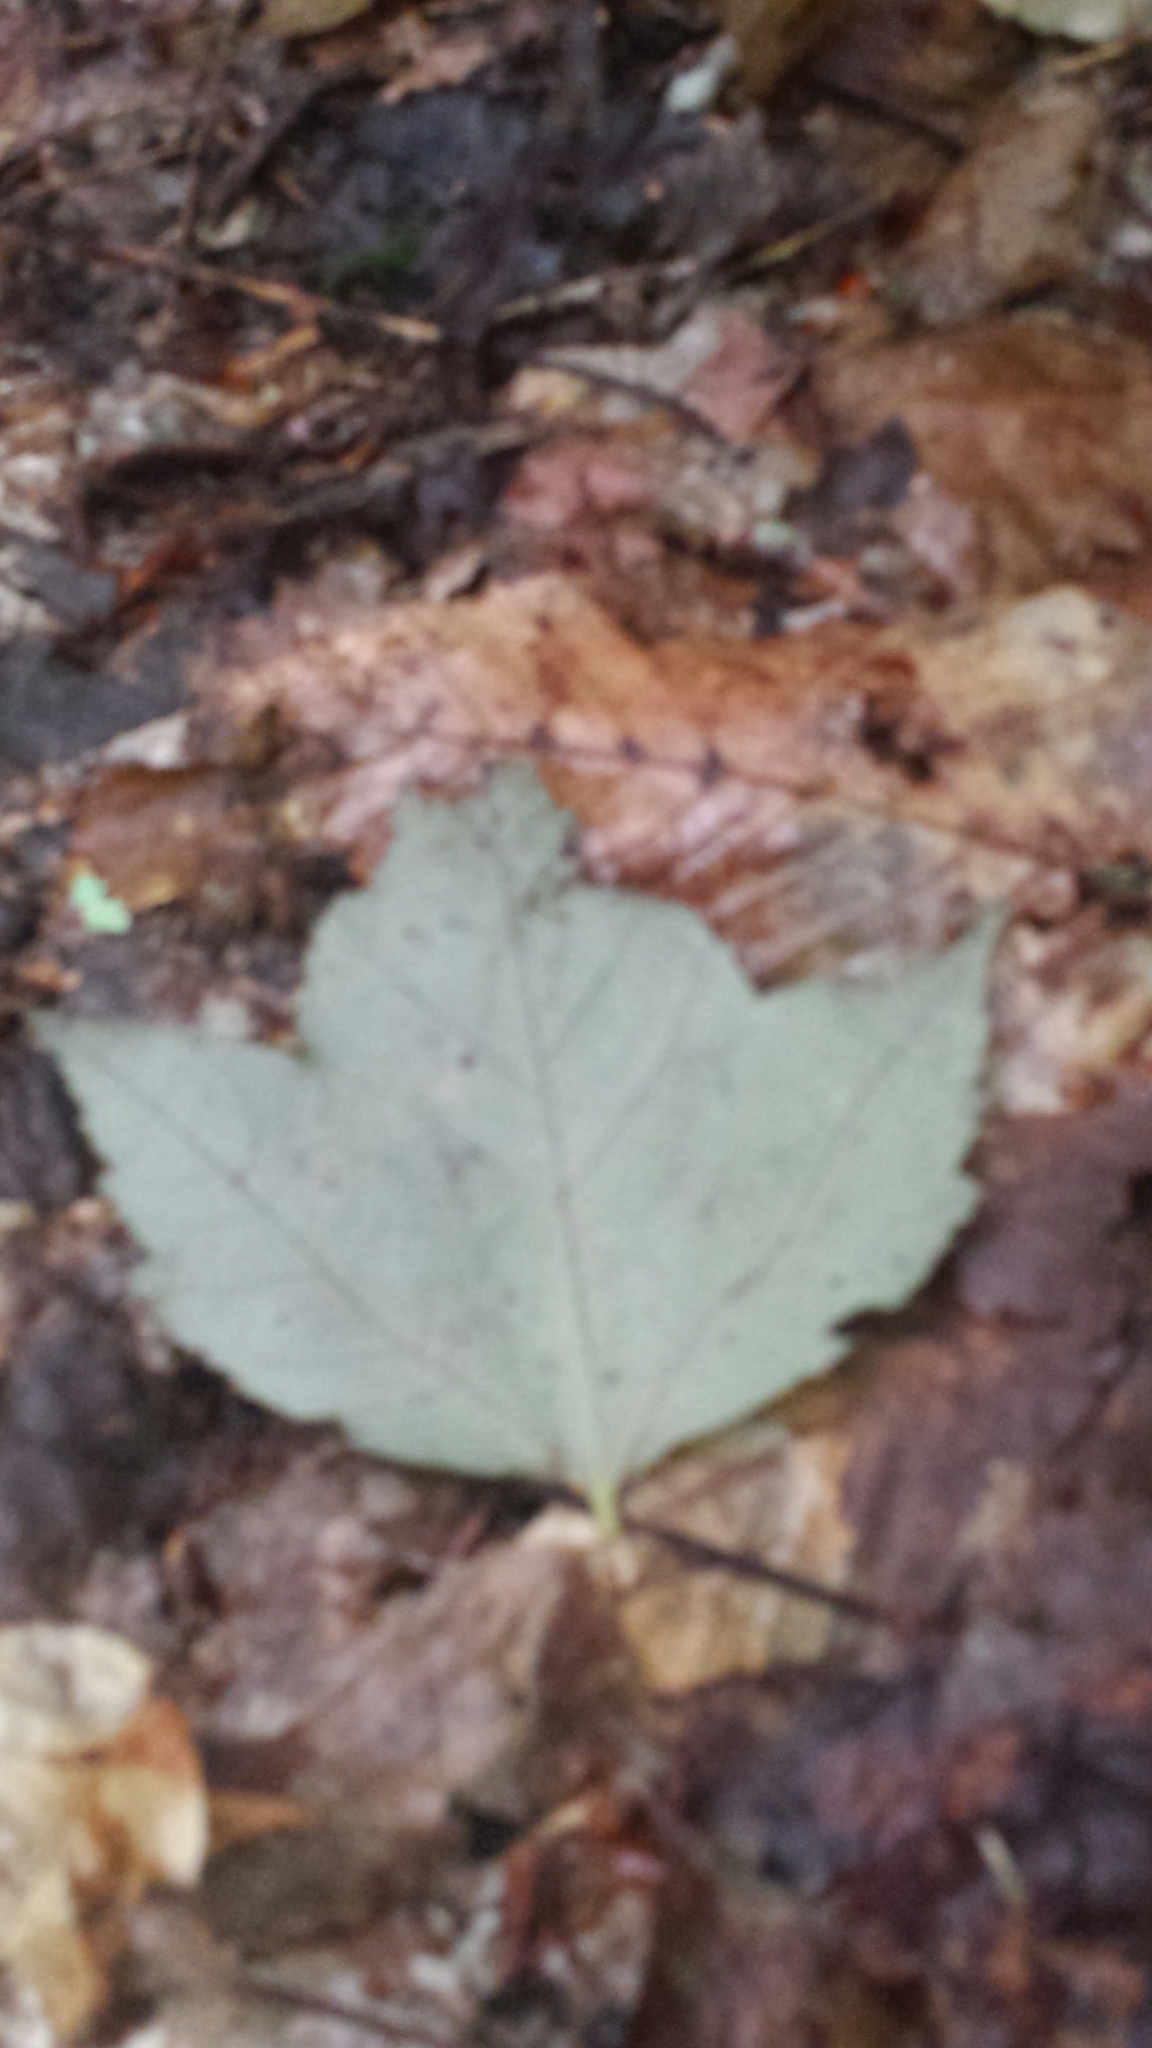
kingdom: Plantae
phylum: Tracheophyta
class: Magnoliopsida
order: Sapindales
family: Sapindaceae
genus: Acer
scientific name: Acer rubrum
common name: Red maple
